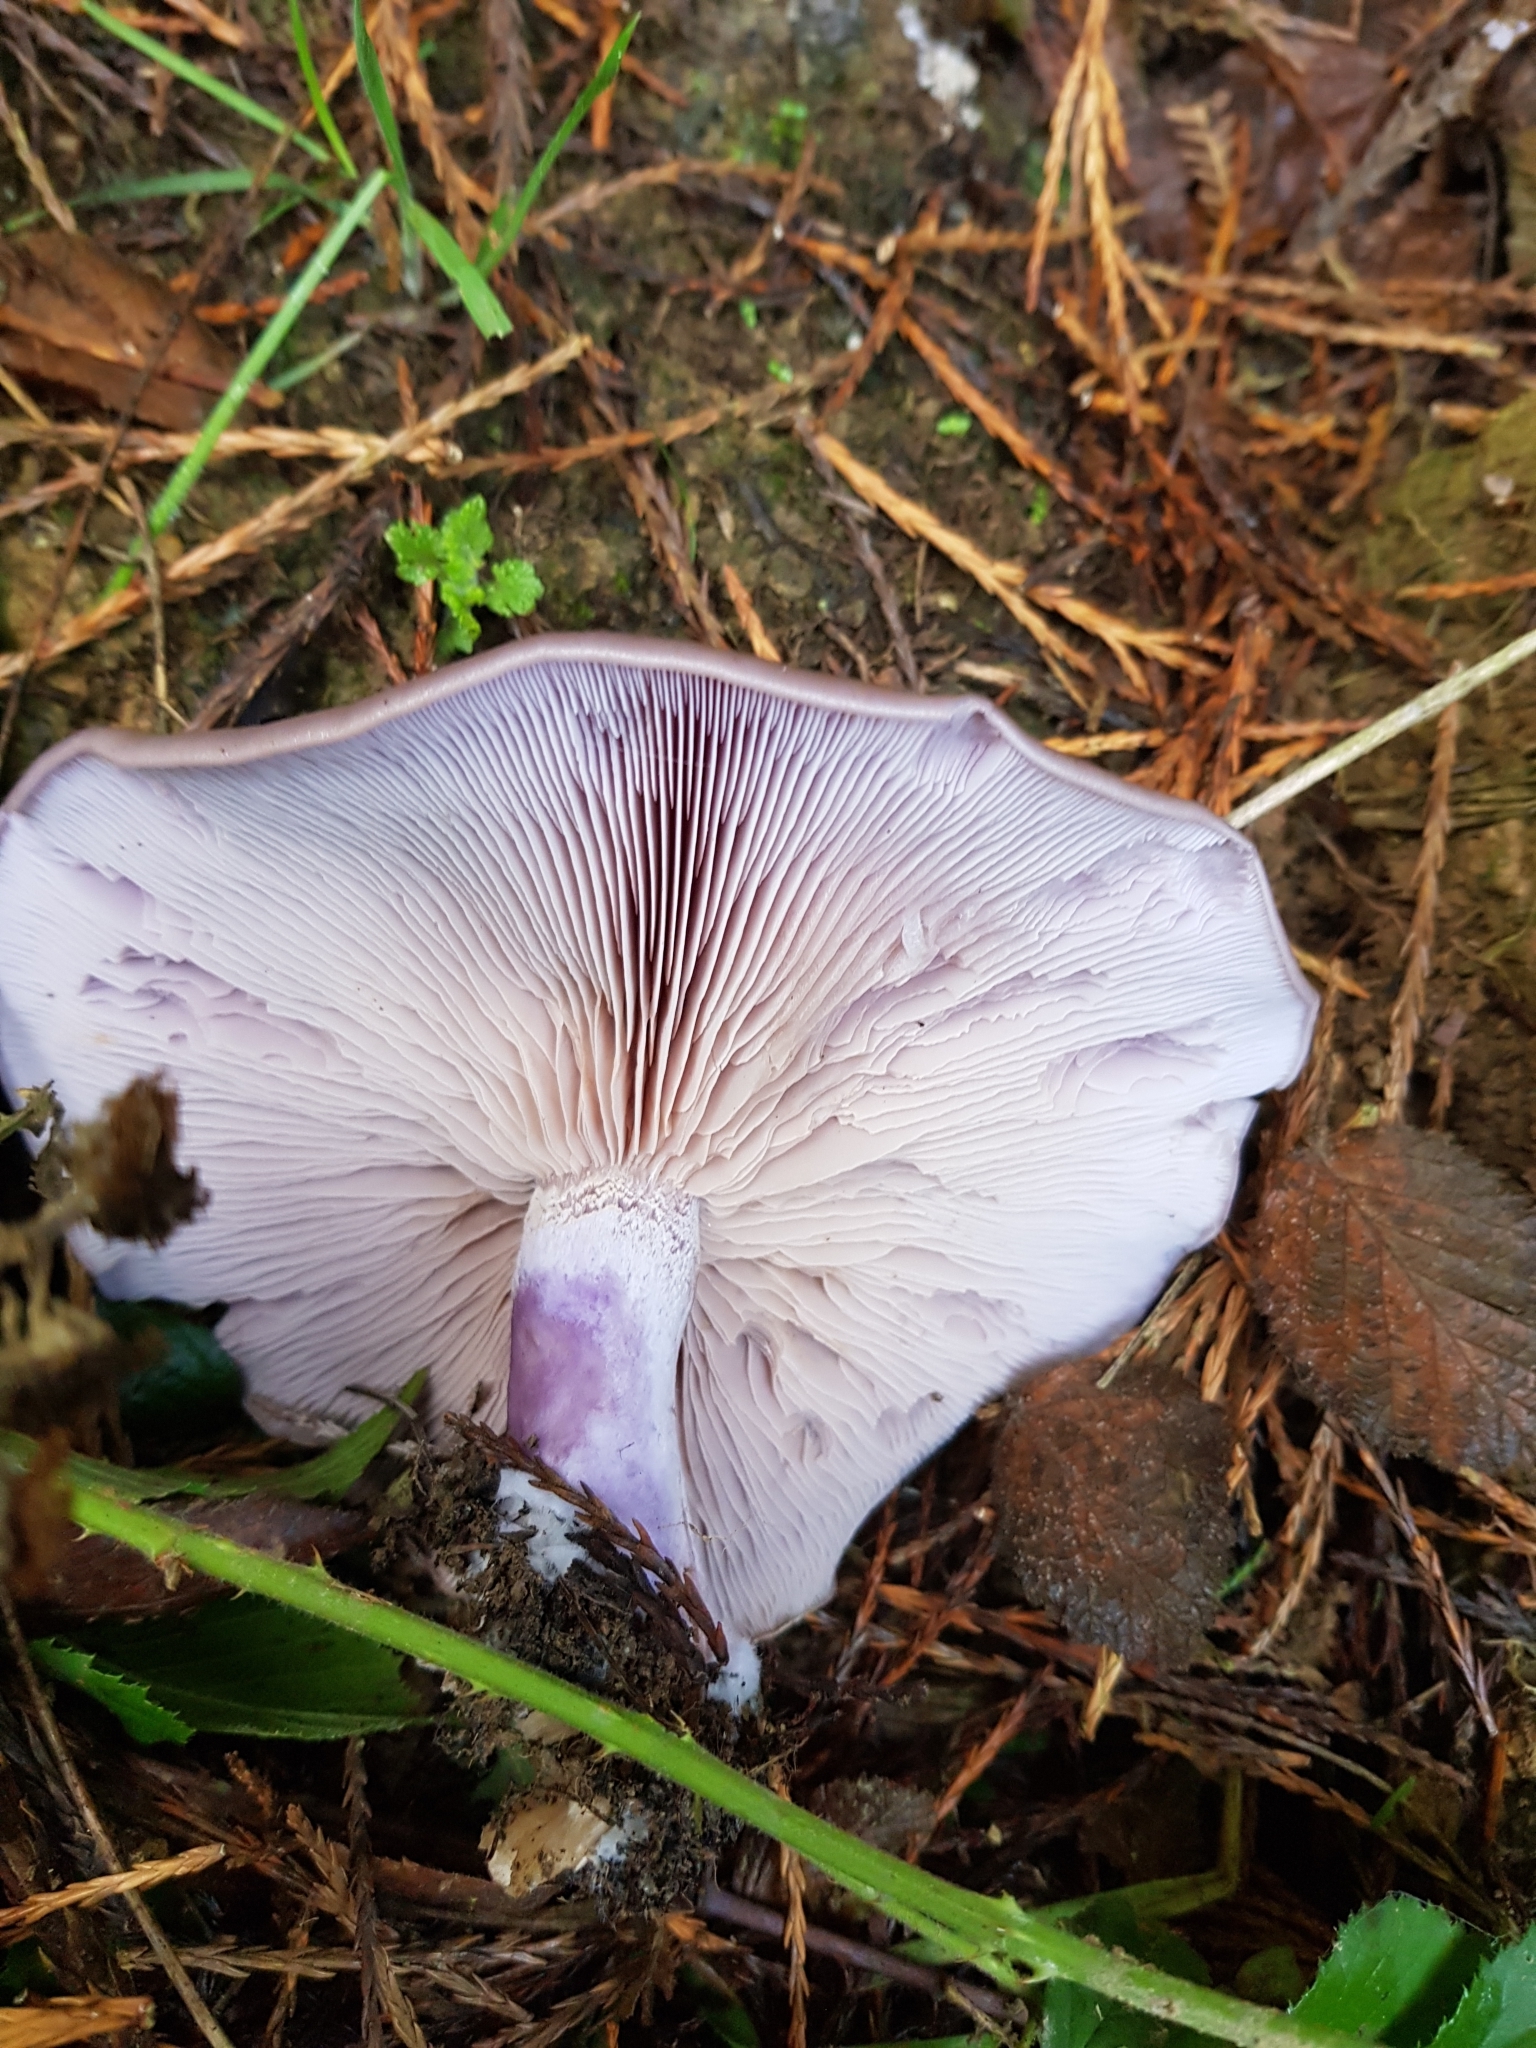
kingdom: Fungi
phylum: Basidiomycota
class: Agaricomycetes
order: Agaricales
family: Tricholomataceae
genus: Collybia
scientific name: Collybia
